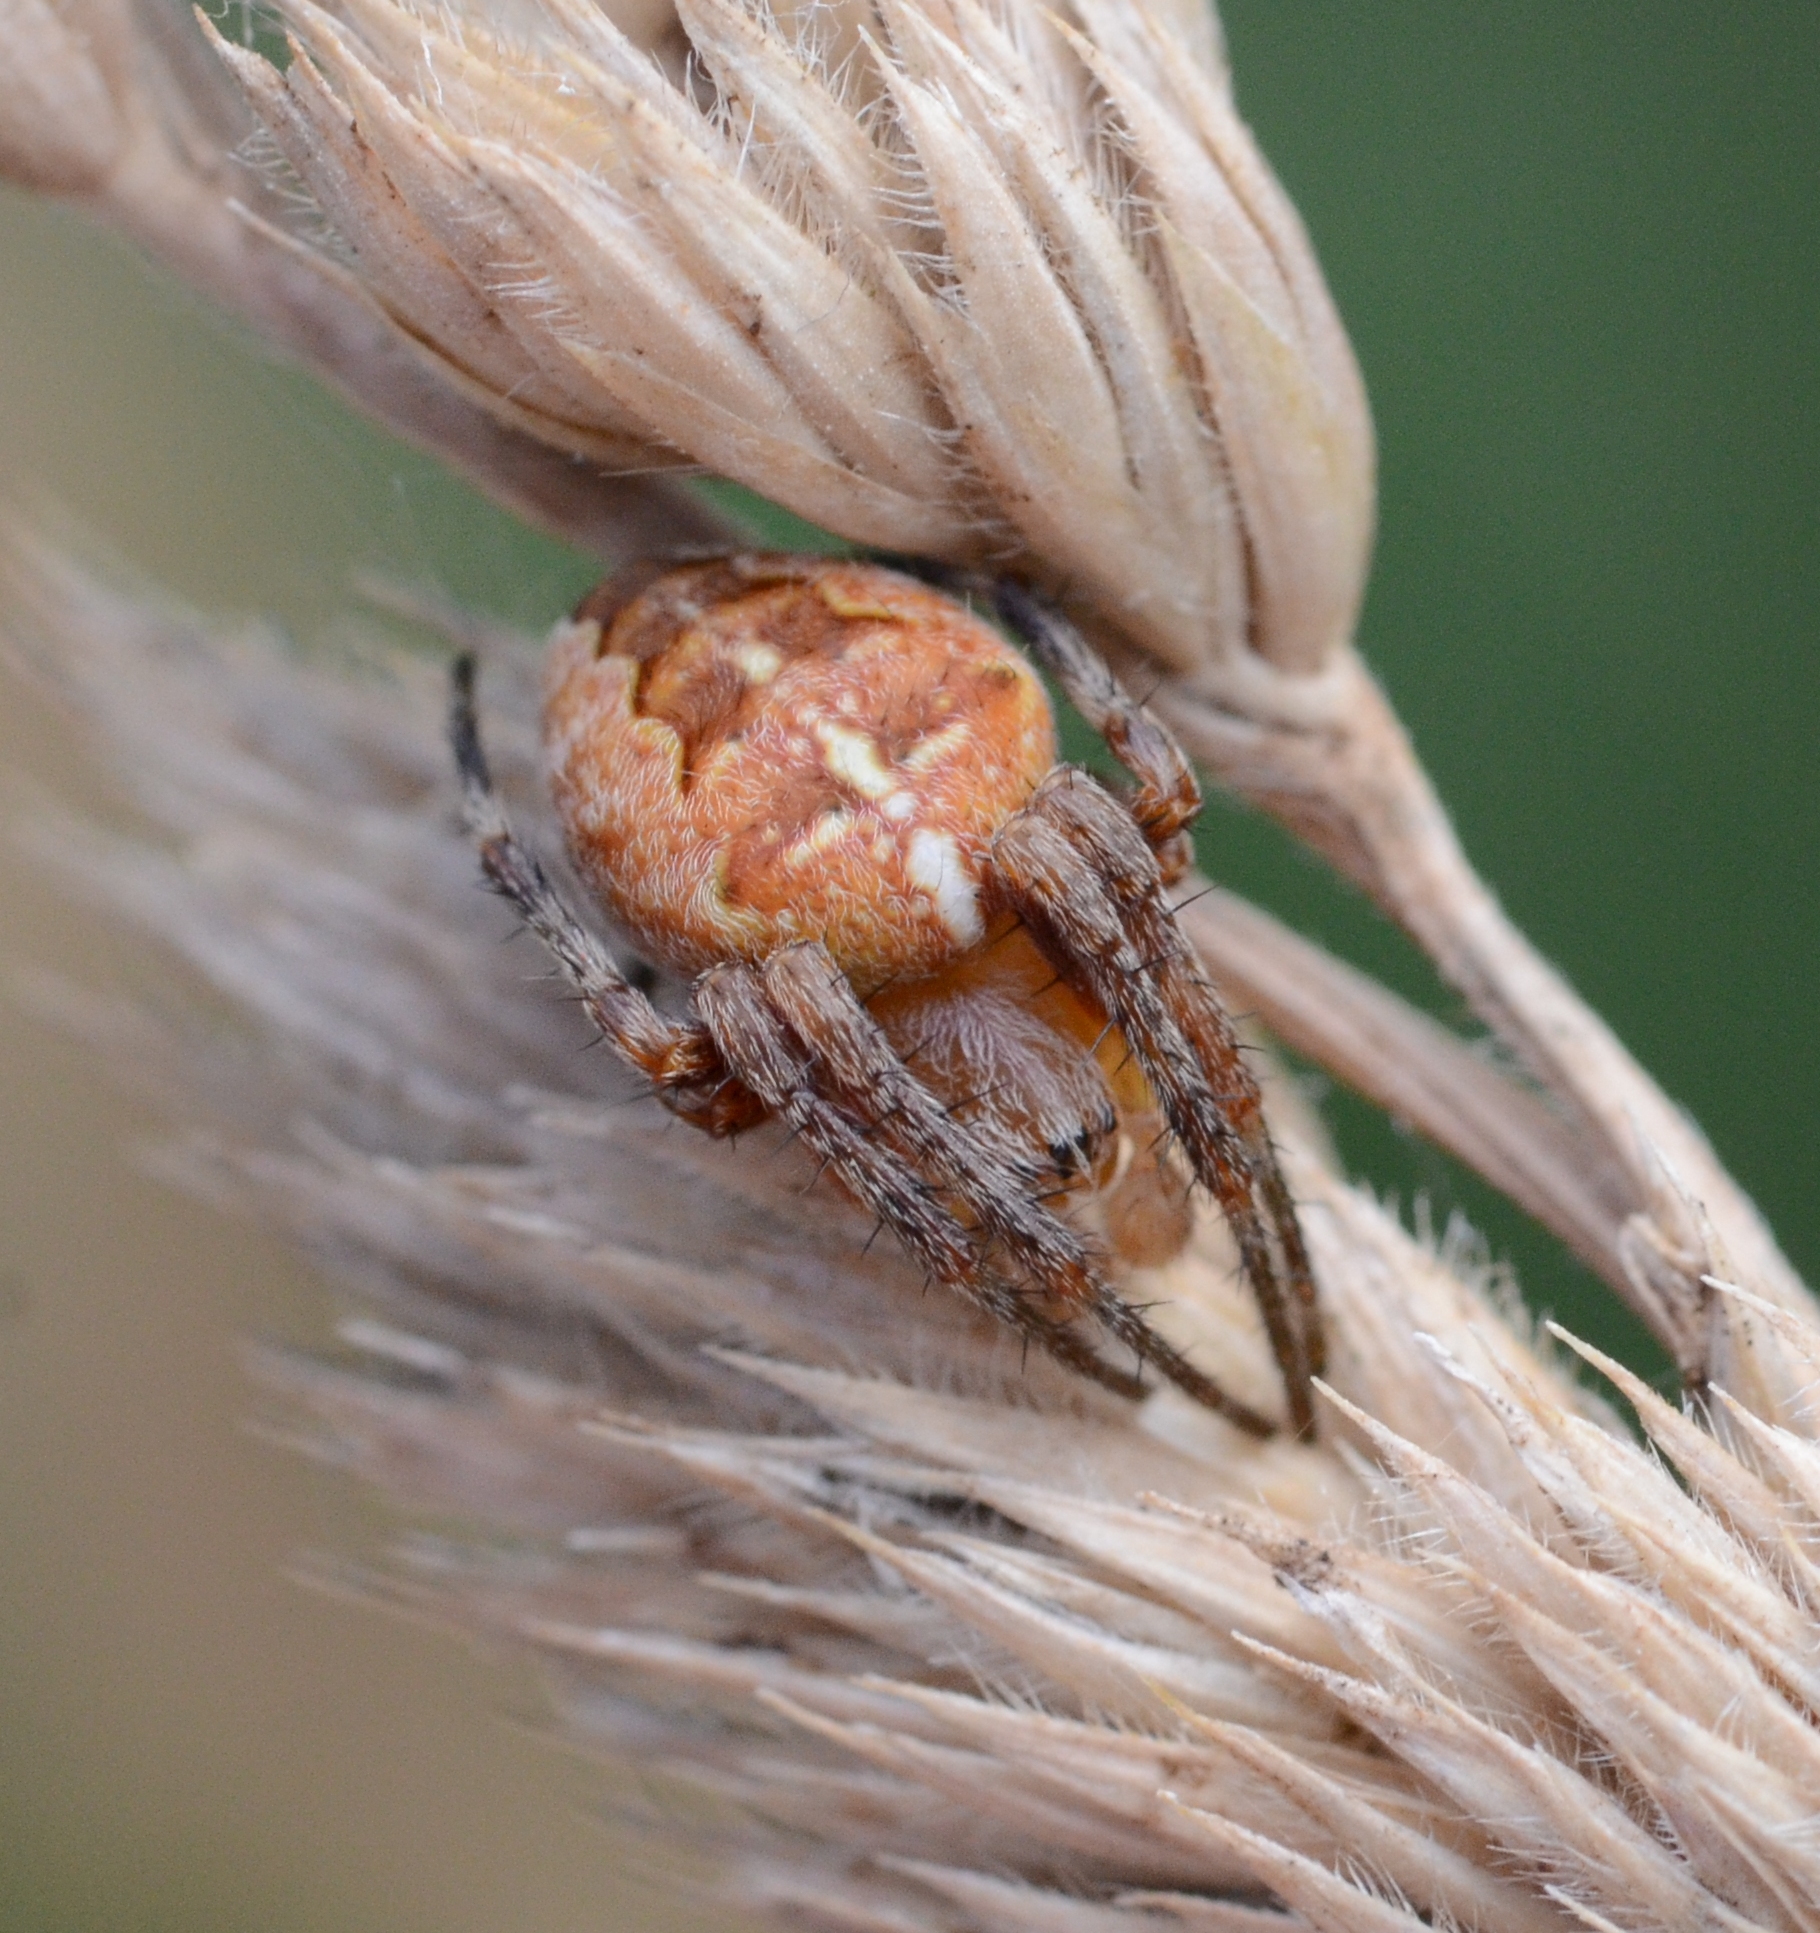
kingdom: Animalia
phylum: Arthropoda
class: Arachnida
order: Araneae
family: Araneidae
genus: Araneus
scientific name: Araneus diadematus
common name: Cross orbweaver
